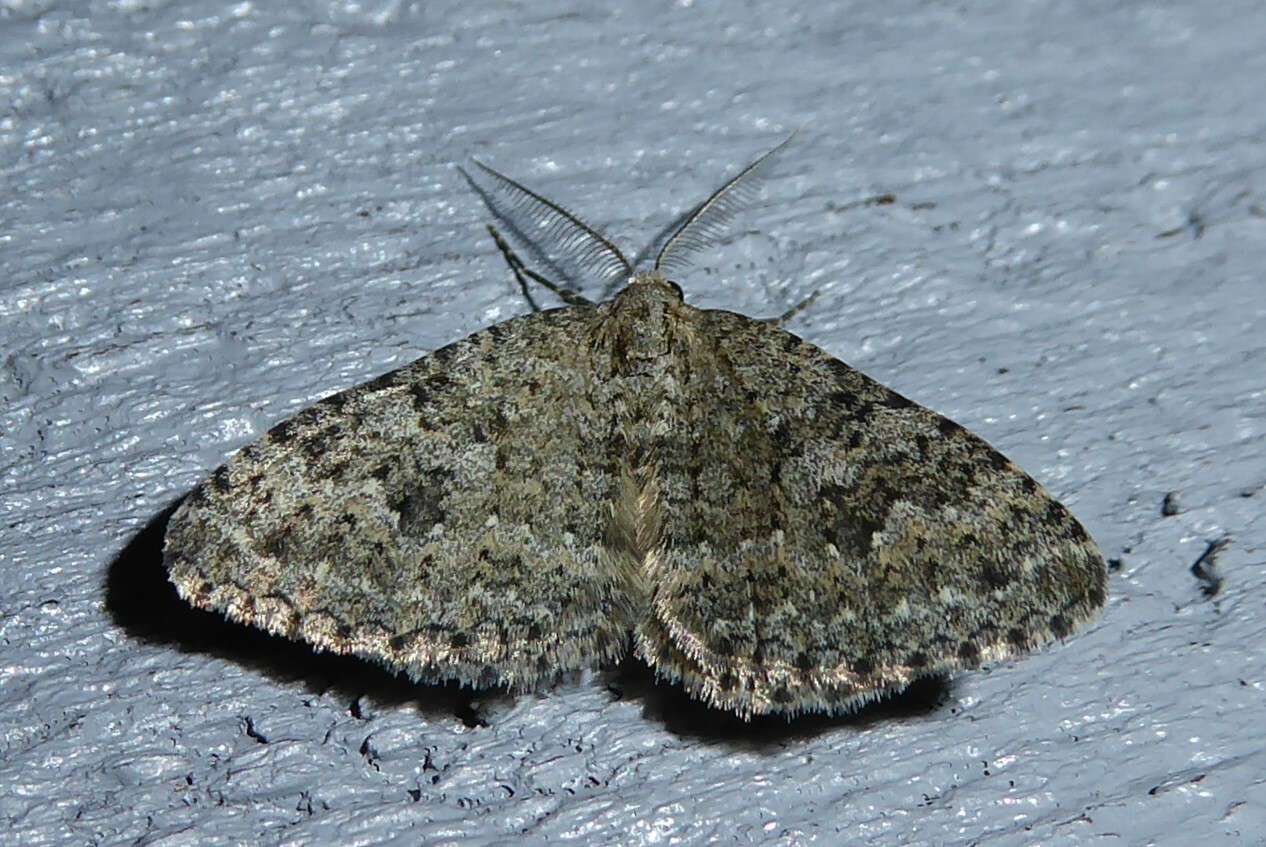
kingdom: Animalia
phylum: Arthropoda
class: Insecta
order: Lepidoptera
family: Geometridae
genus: Helastia
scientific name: Helastia corcularia
